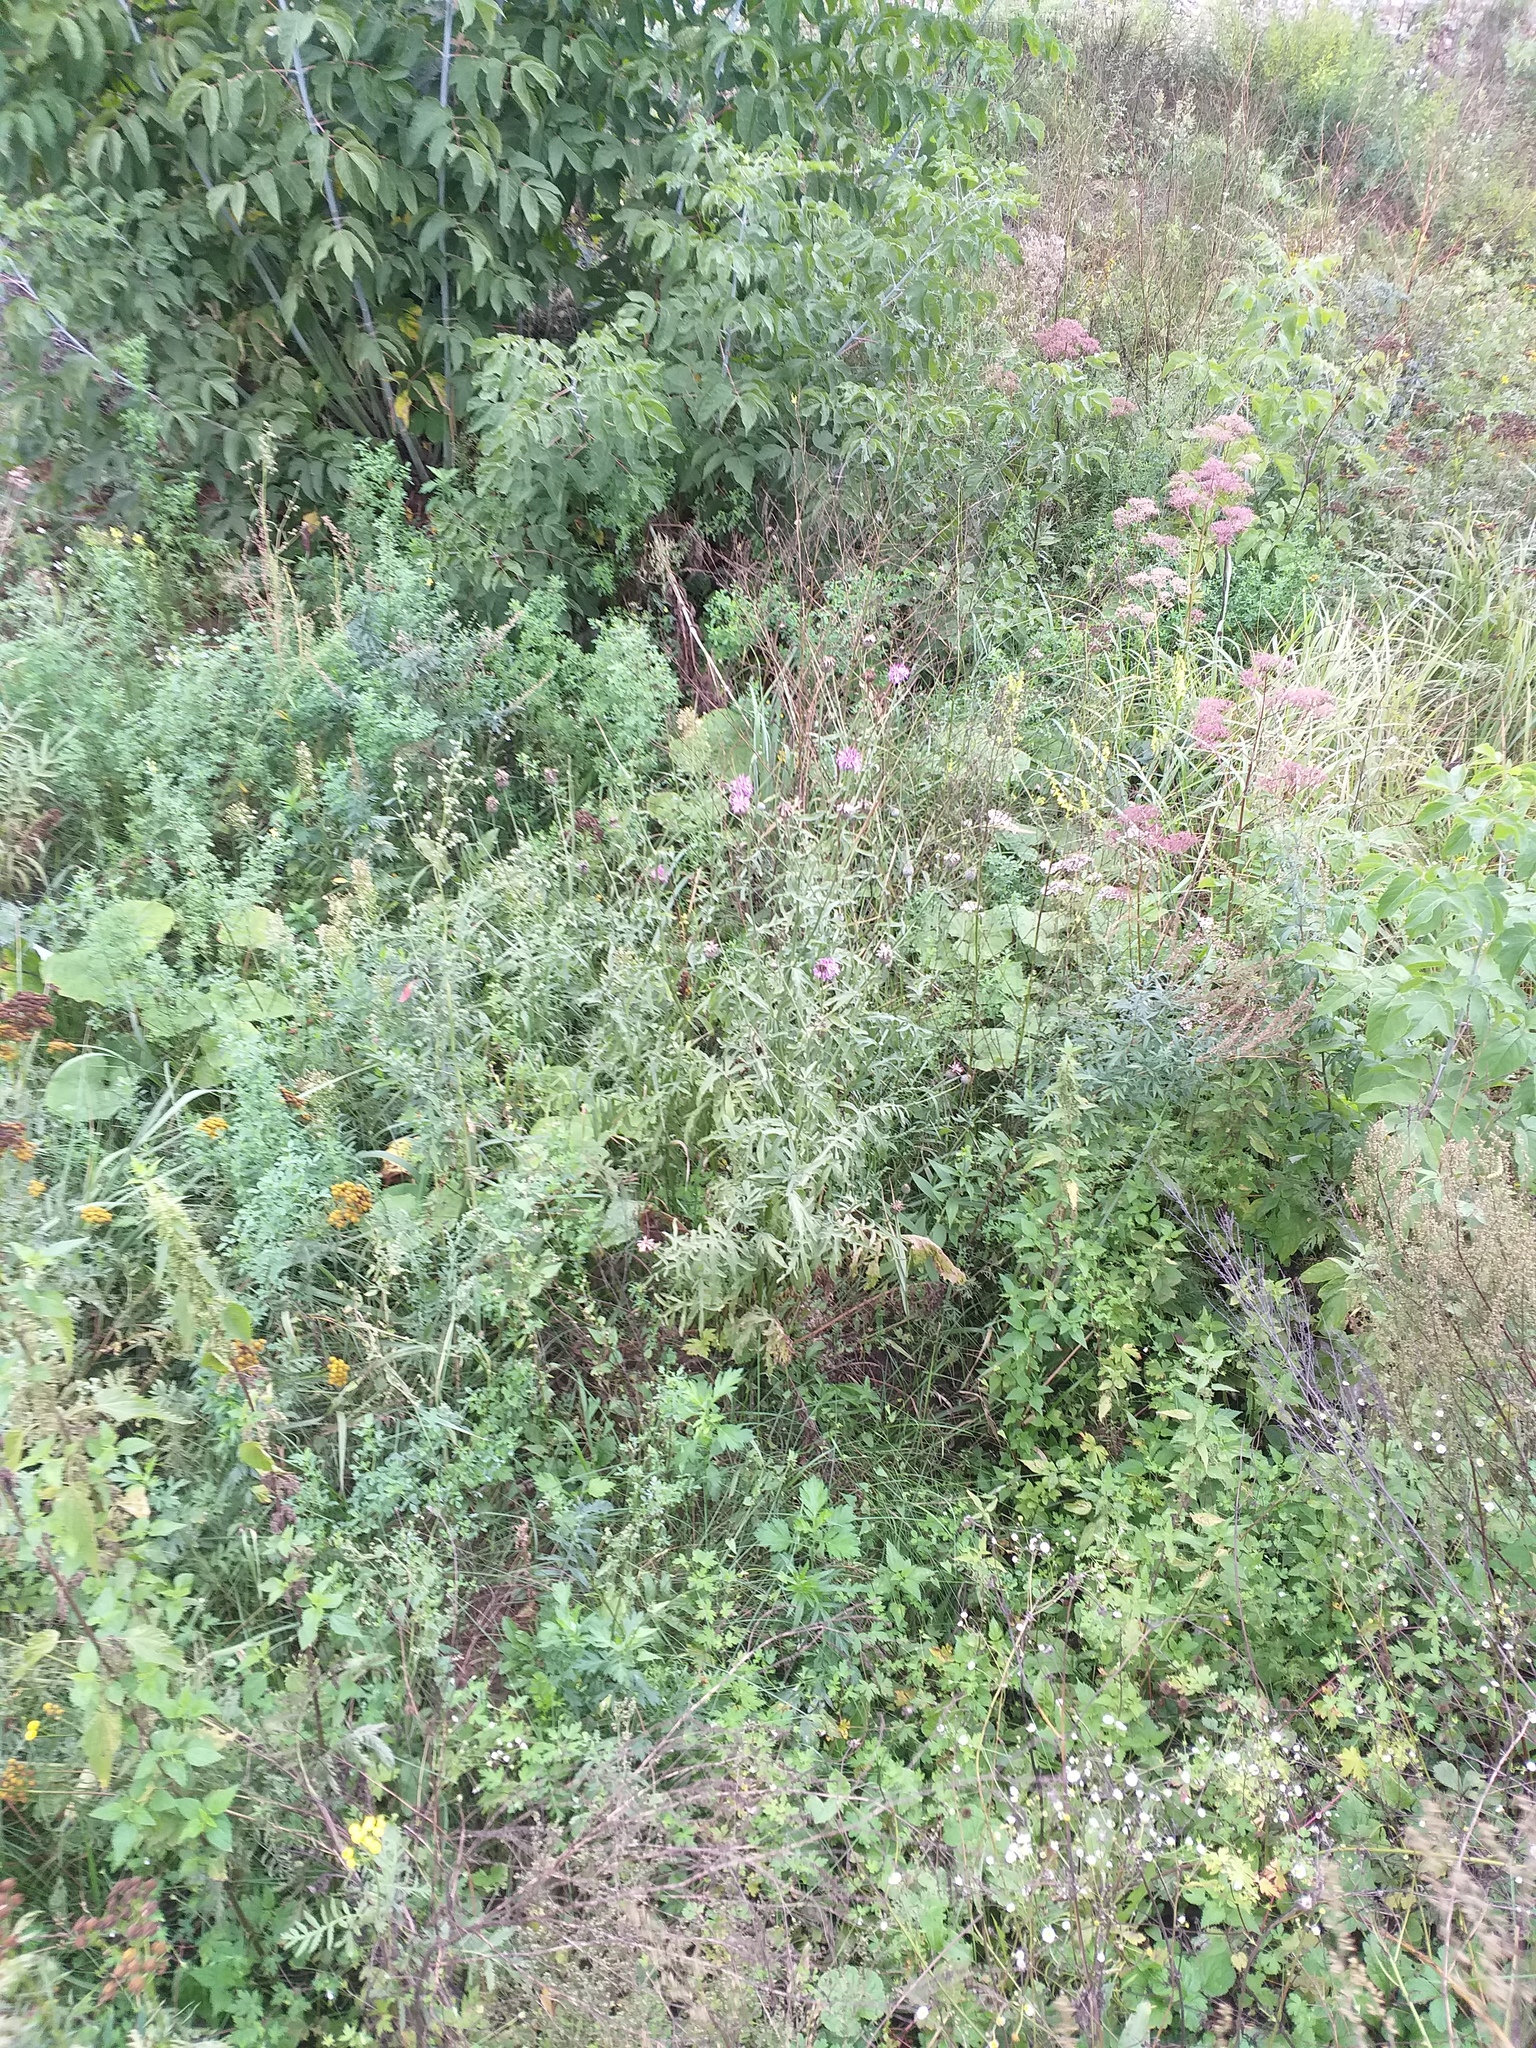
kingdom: Plantae
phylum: Tracheophyta
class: Magnoliopsida
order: Asterales
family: Asteraceae
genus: Centaurea
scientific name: Centaurea scabiosa
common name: Greater knapweed
